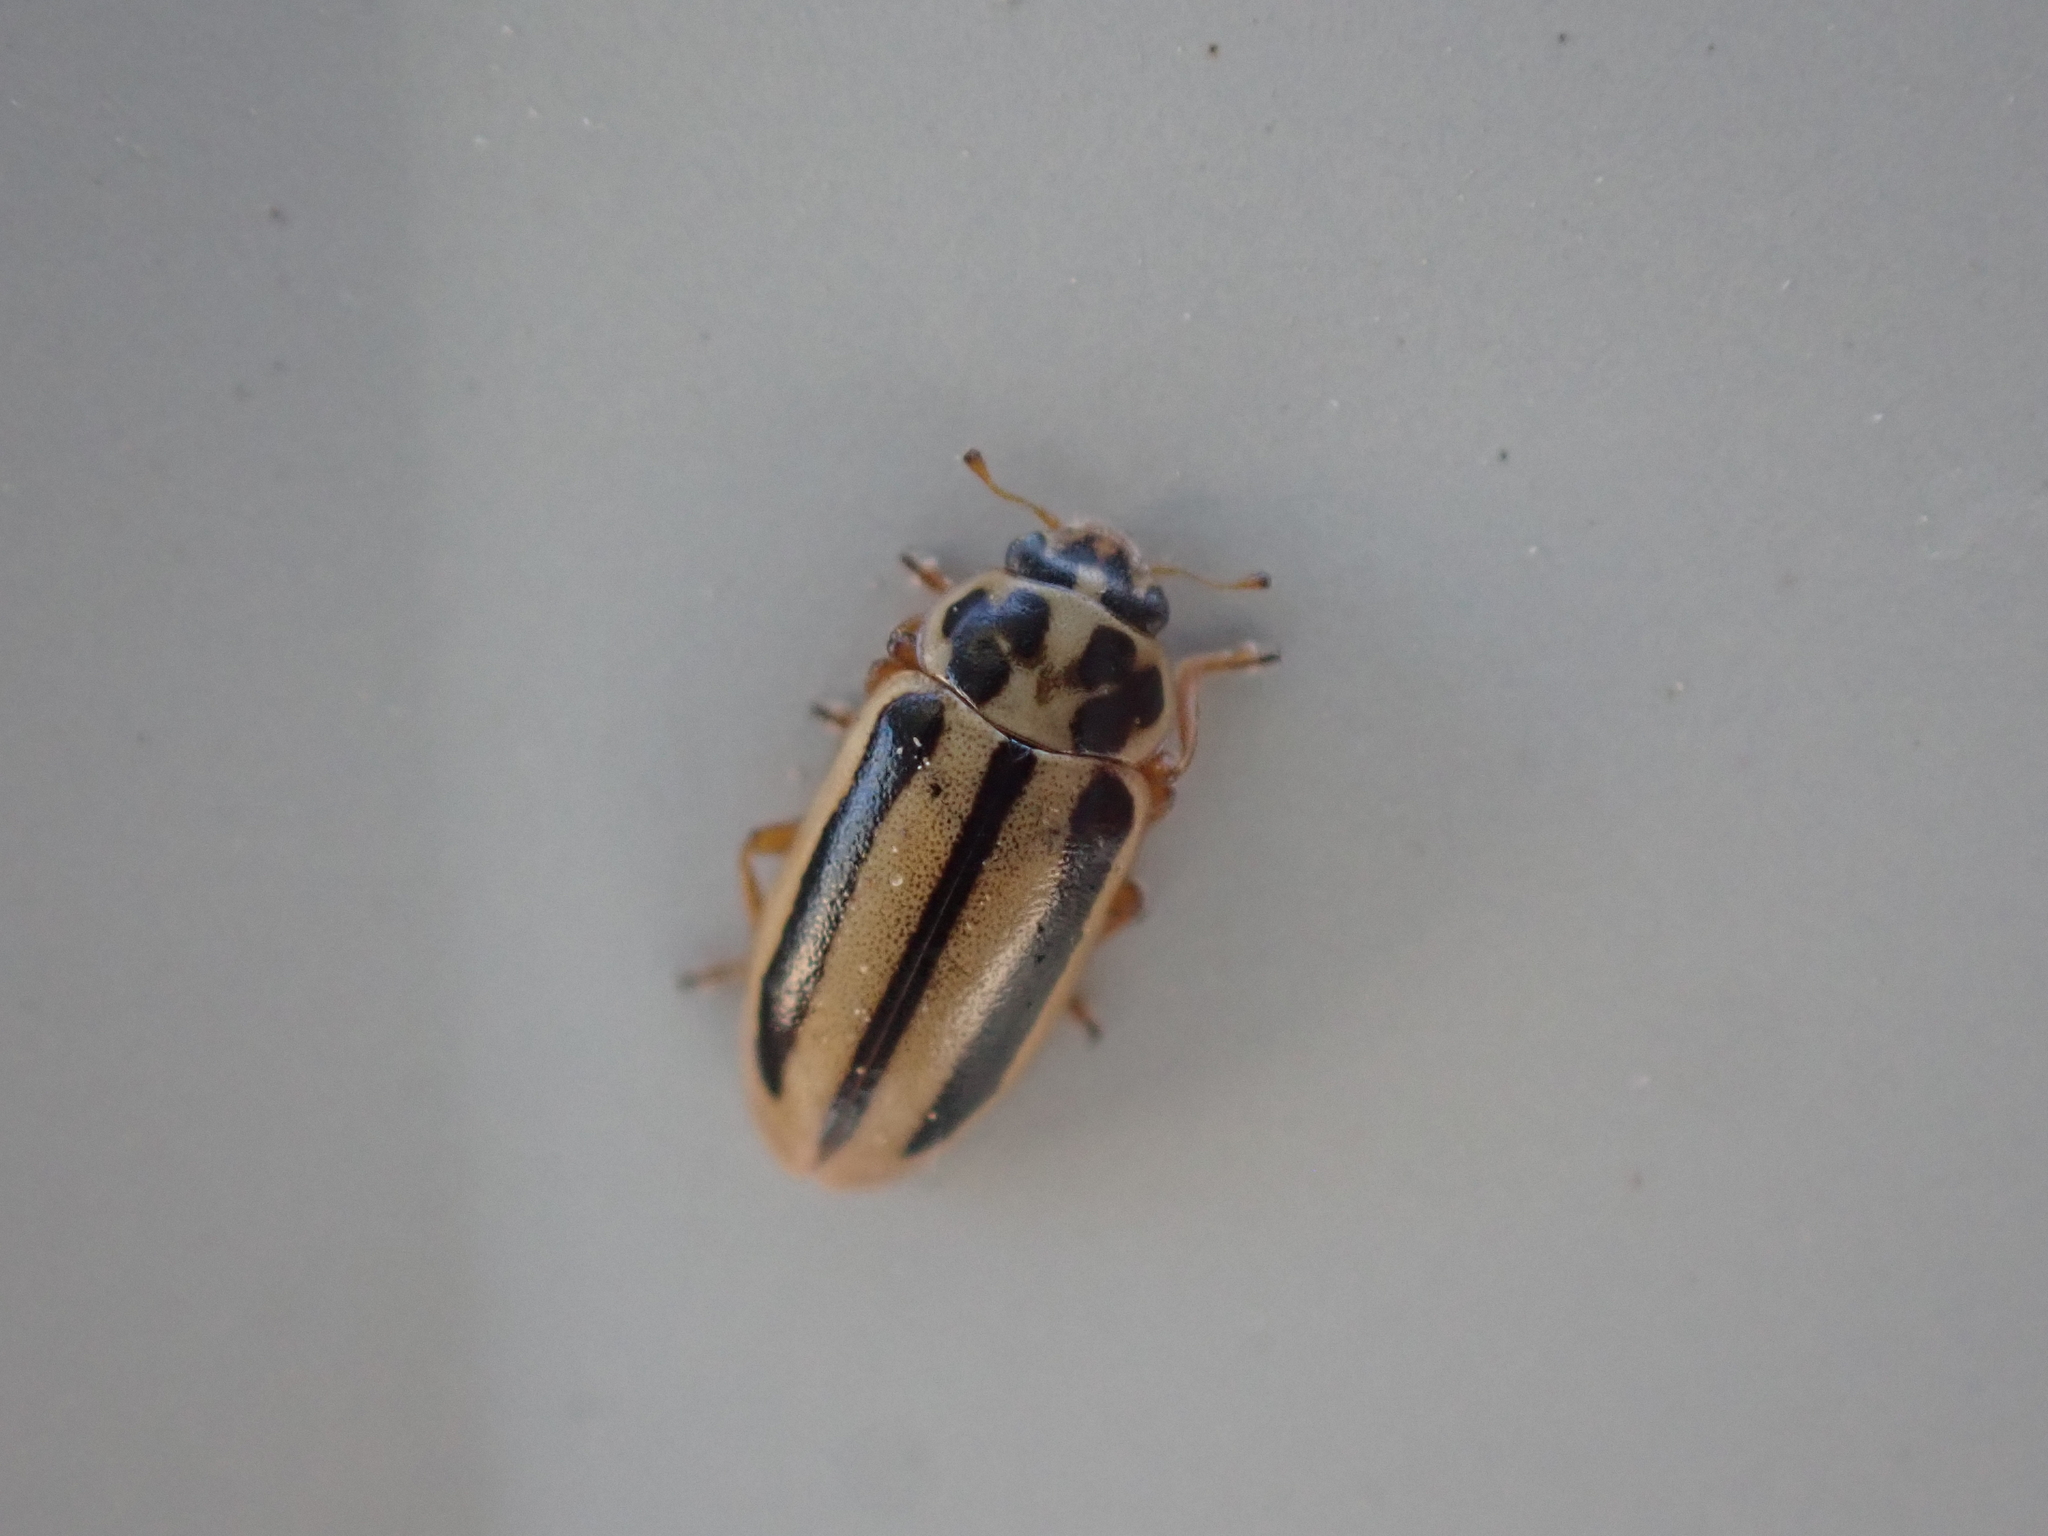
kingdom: Animalia
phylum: Arthropoda
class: Insecta
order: Coleoptera
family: Coccinellidae
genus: Macronaemia
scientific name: Macronaemia episcopalis
